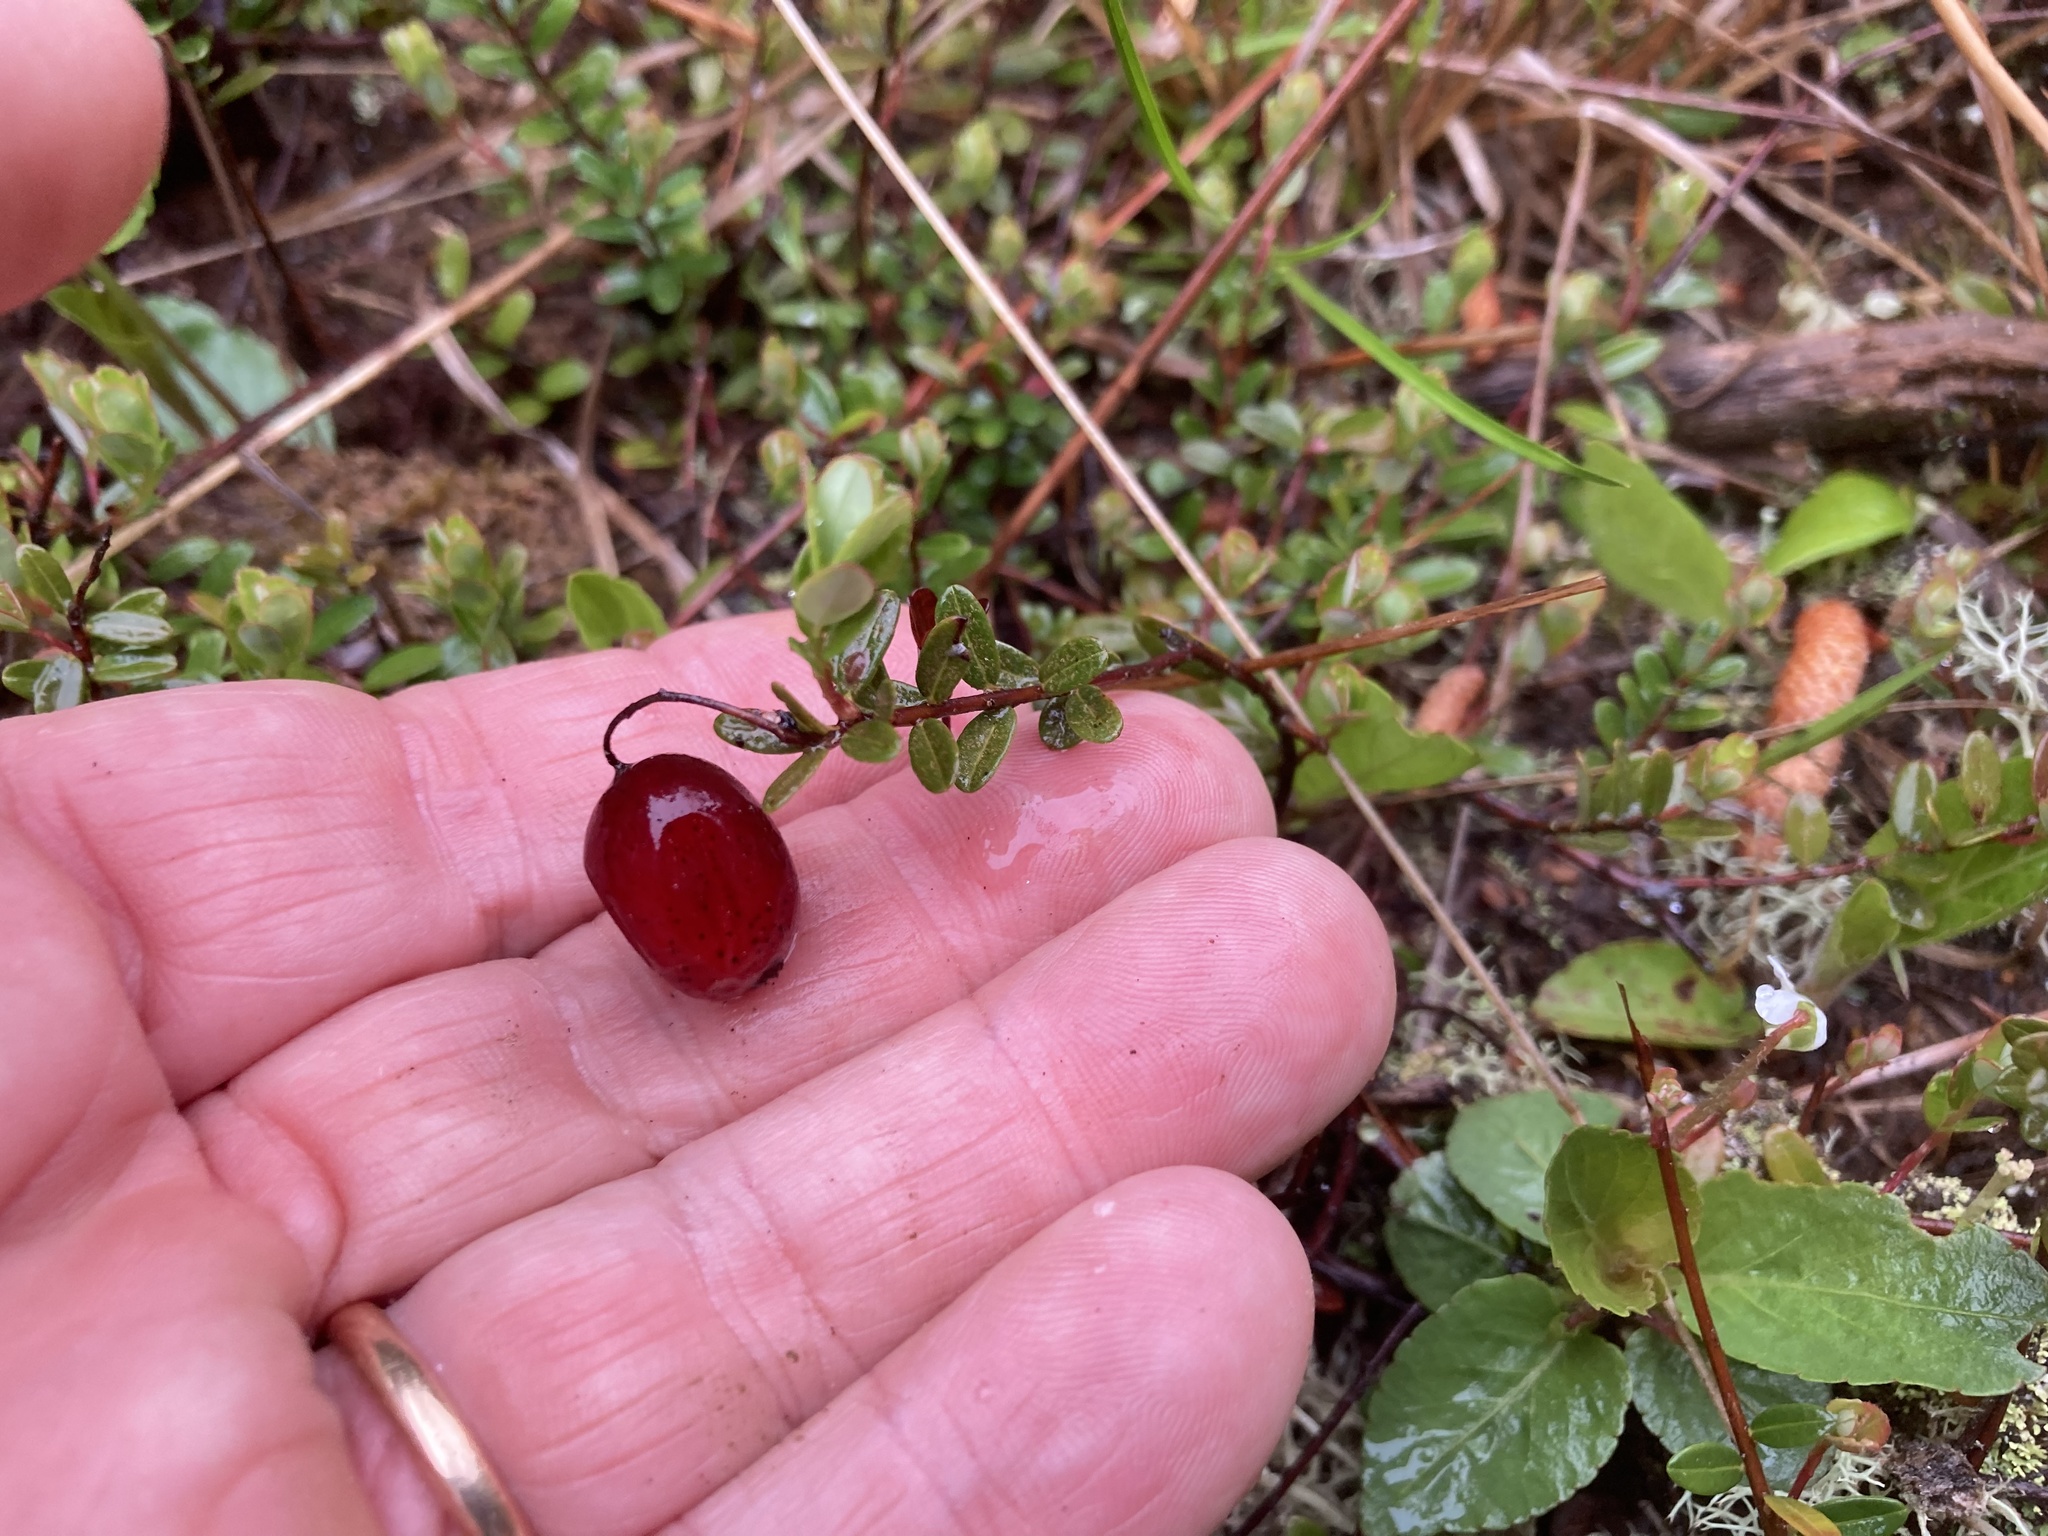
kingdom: Plantae
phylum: Tracheophyta
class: Magnoliopsida
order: Ericales
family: Ericaceae
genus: Vaccinium
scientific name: Vaccinium macrocarpon
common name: American cranberry
